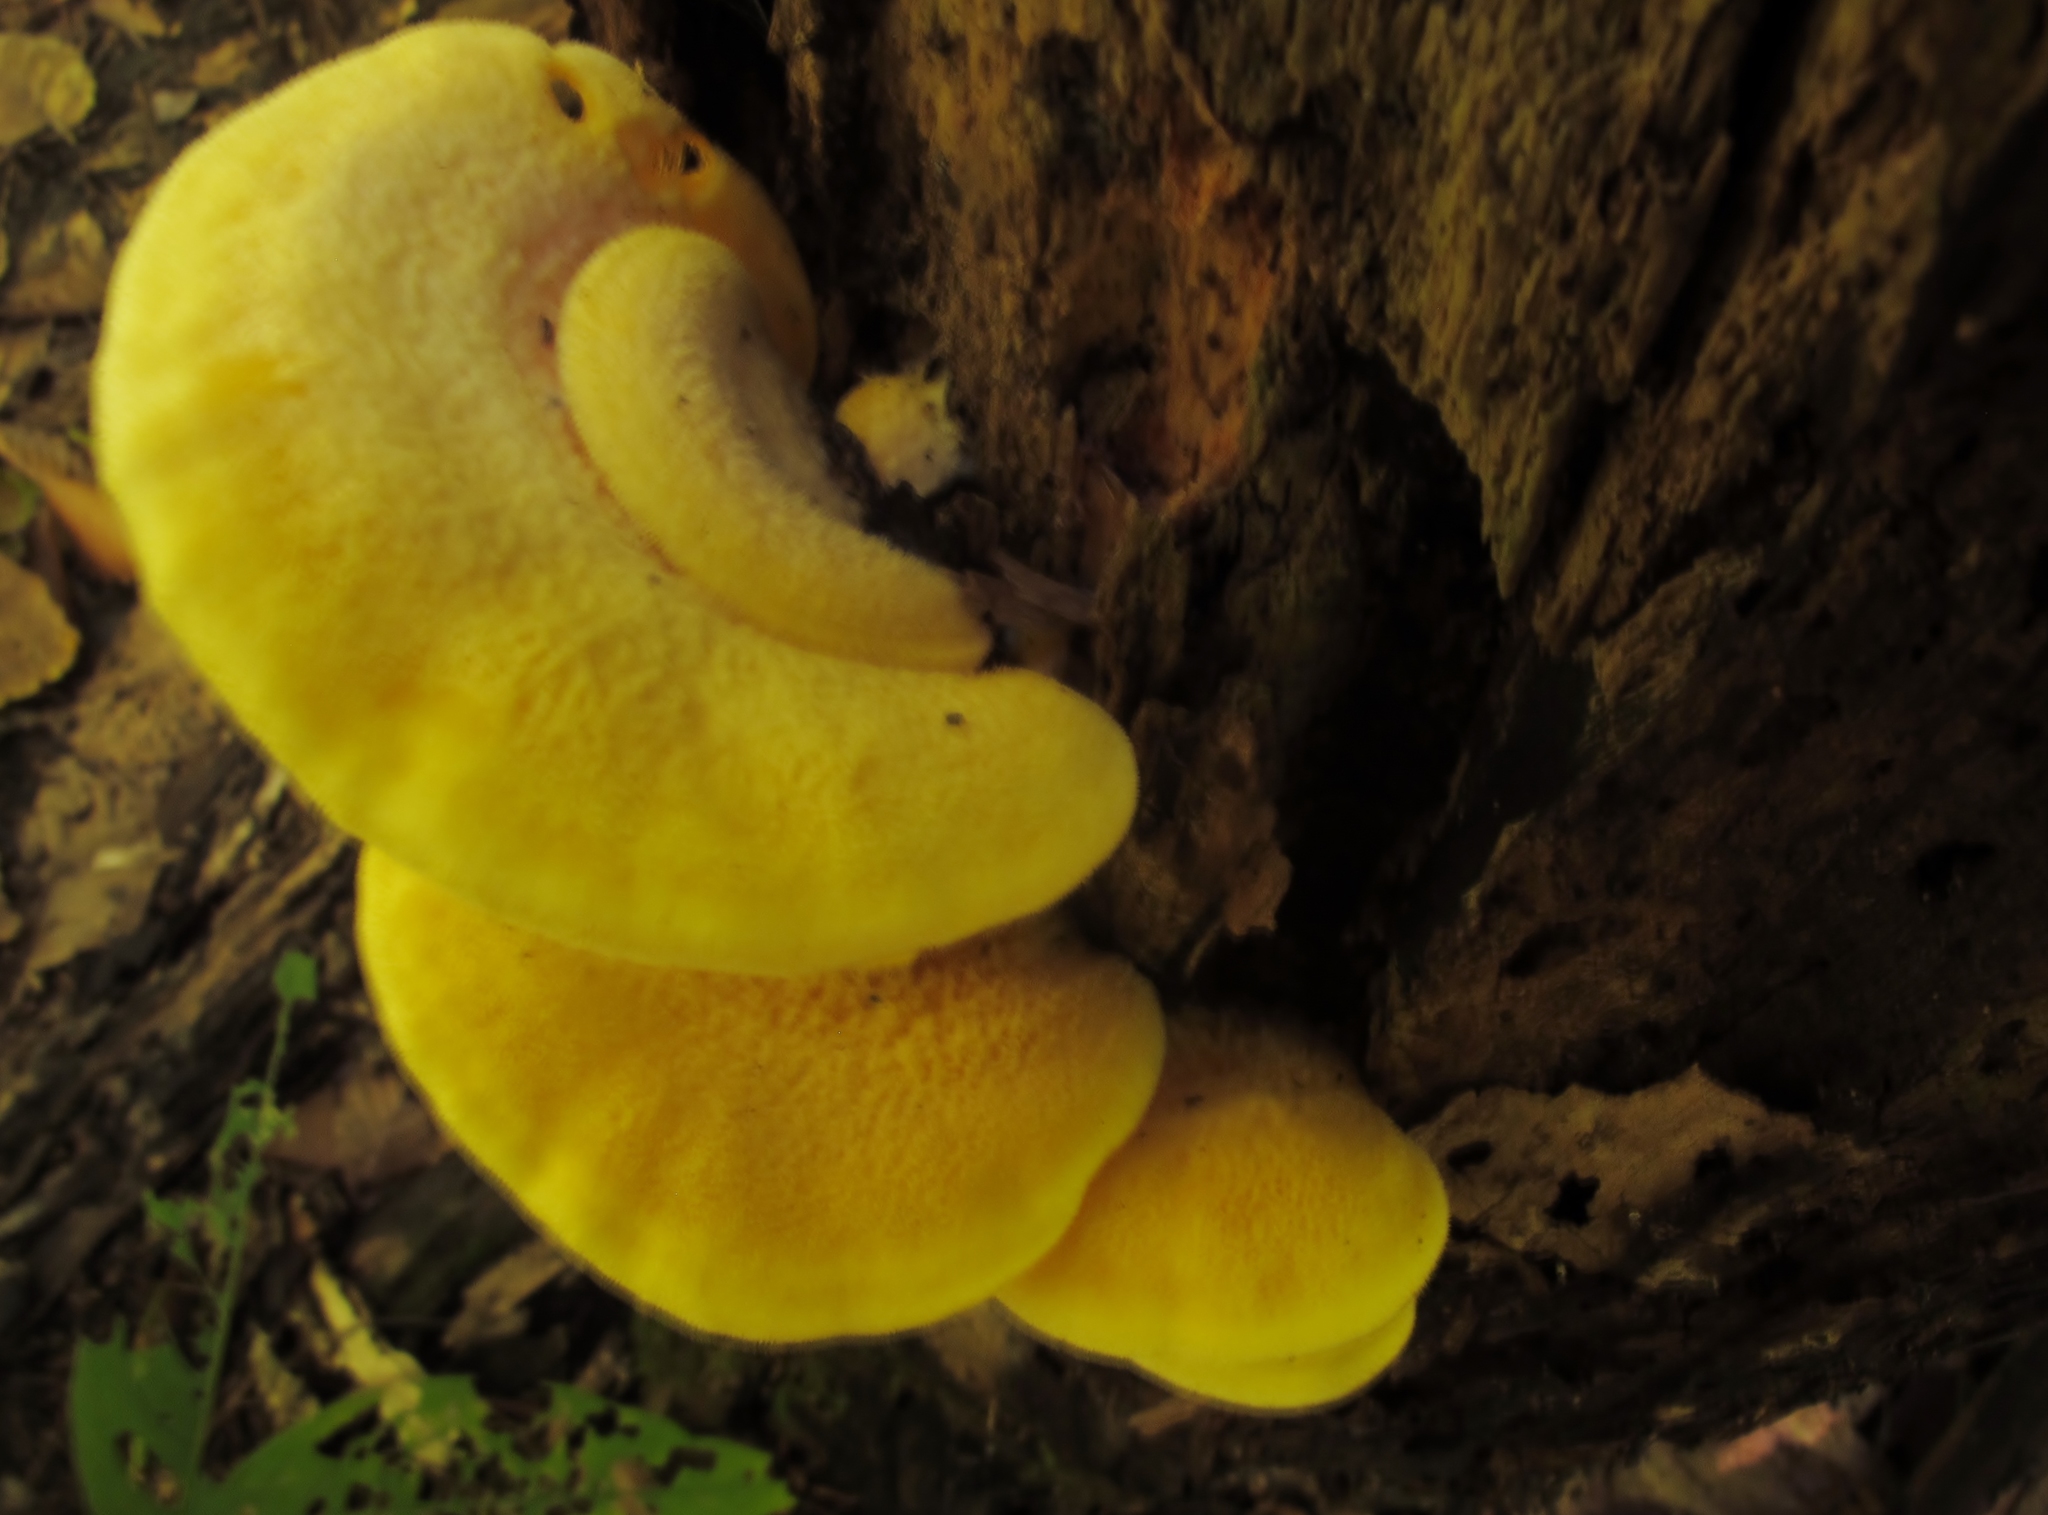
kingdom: Fungi
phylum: Basidiomycota
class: Agaricomycetes
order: Agaricales
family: Phyllotopsidaceae
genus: Phyllotopsis
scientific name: Phyllotopsis nidulans
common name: Orange mock oyster
